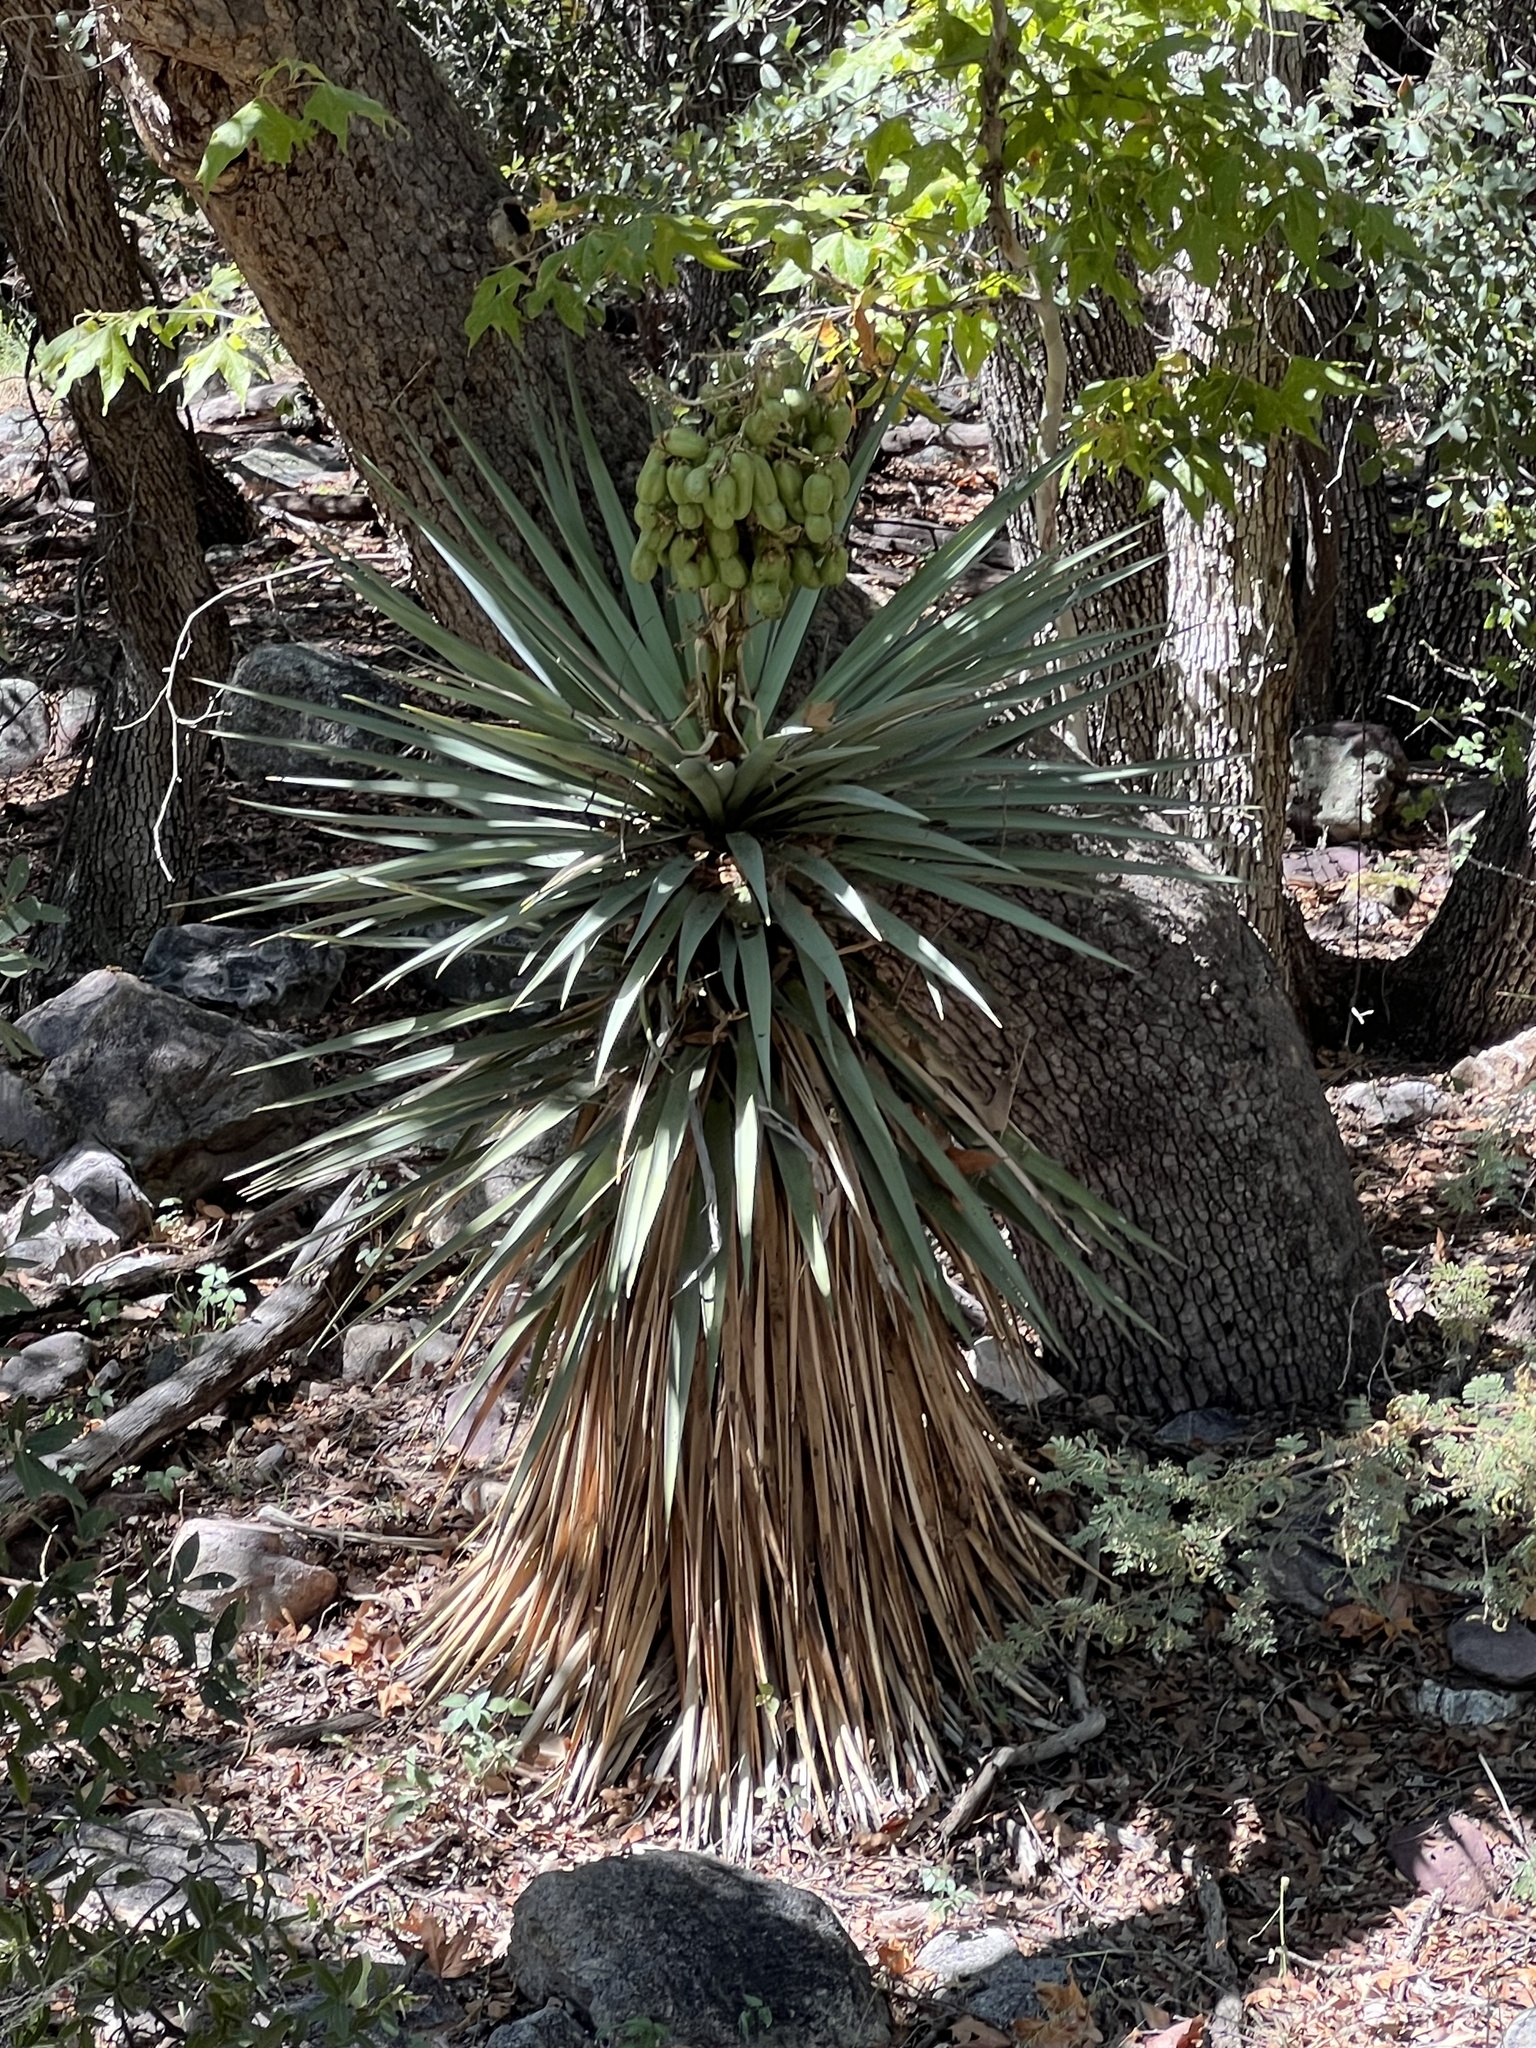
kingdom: Plantae
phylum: Tracheophyta
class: Liliopsida
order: Asparagales
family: Asparagaceae
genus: Yucca
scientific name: Yucca schottii
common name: Hoary yucca
